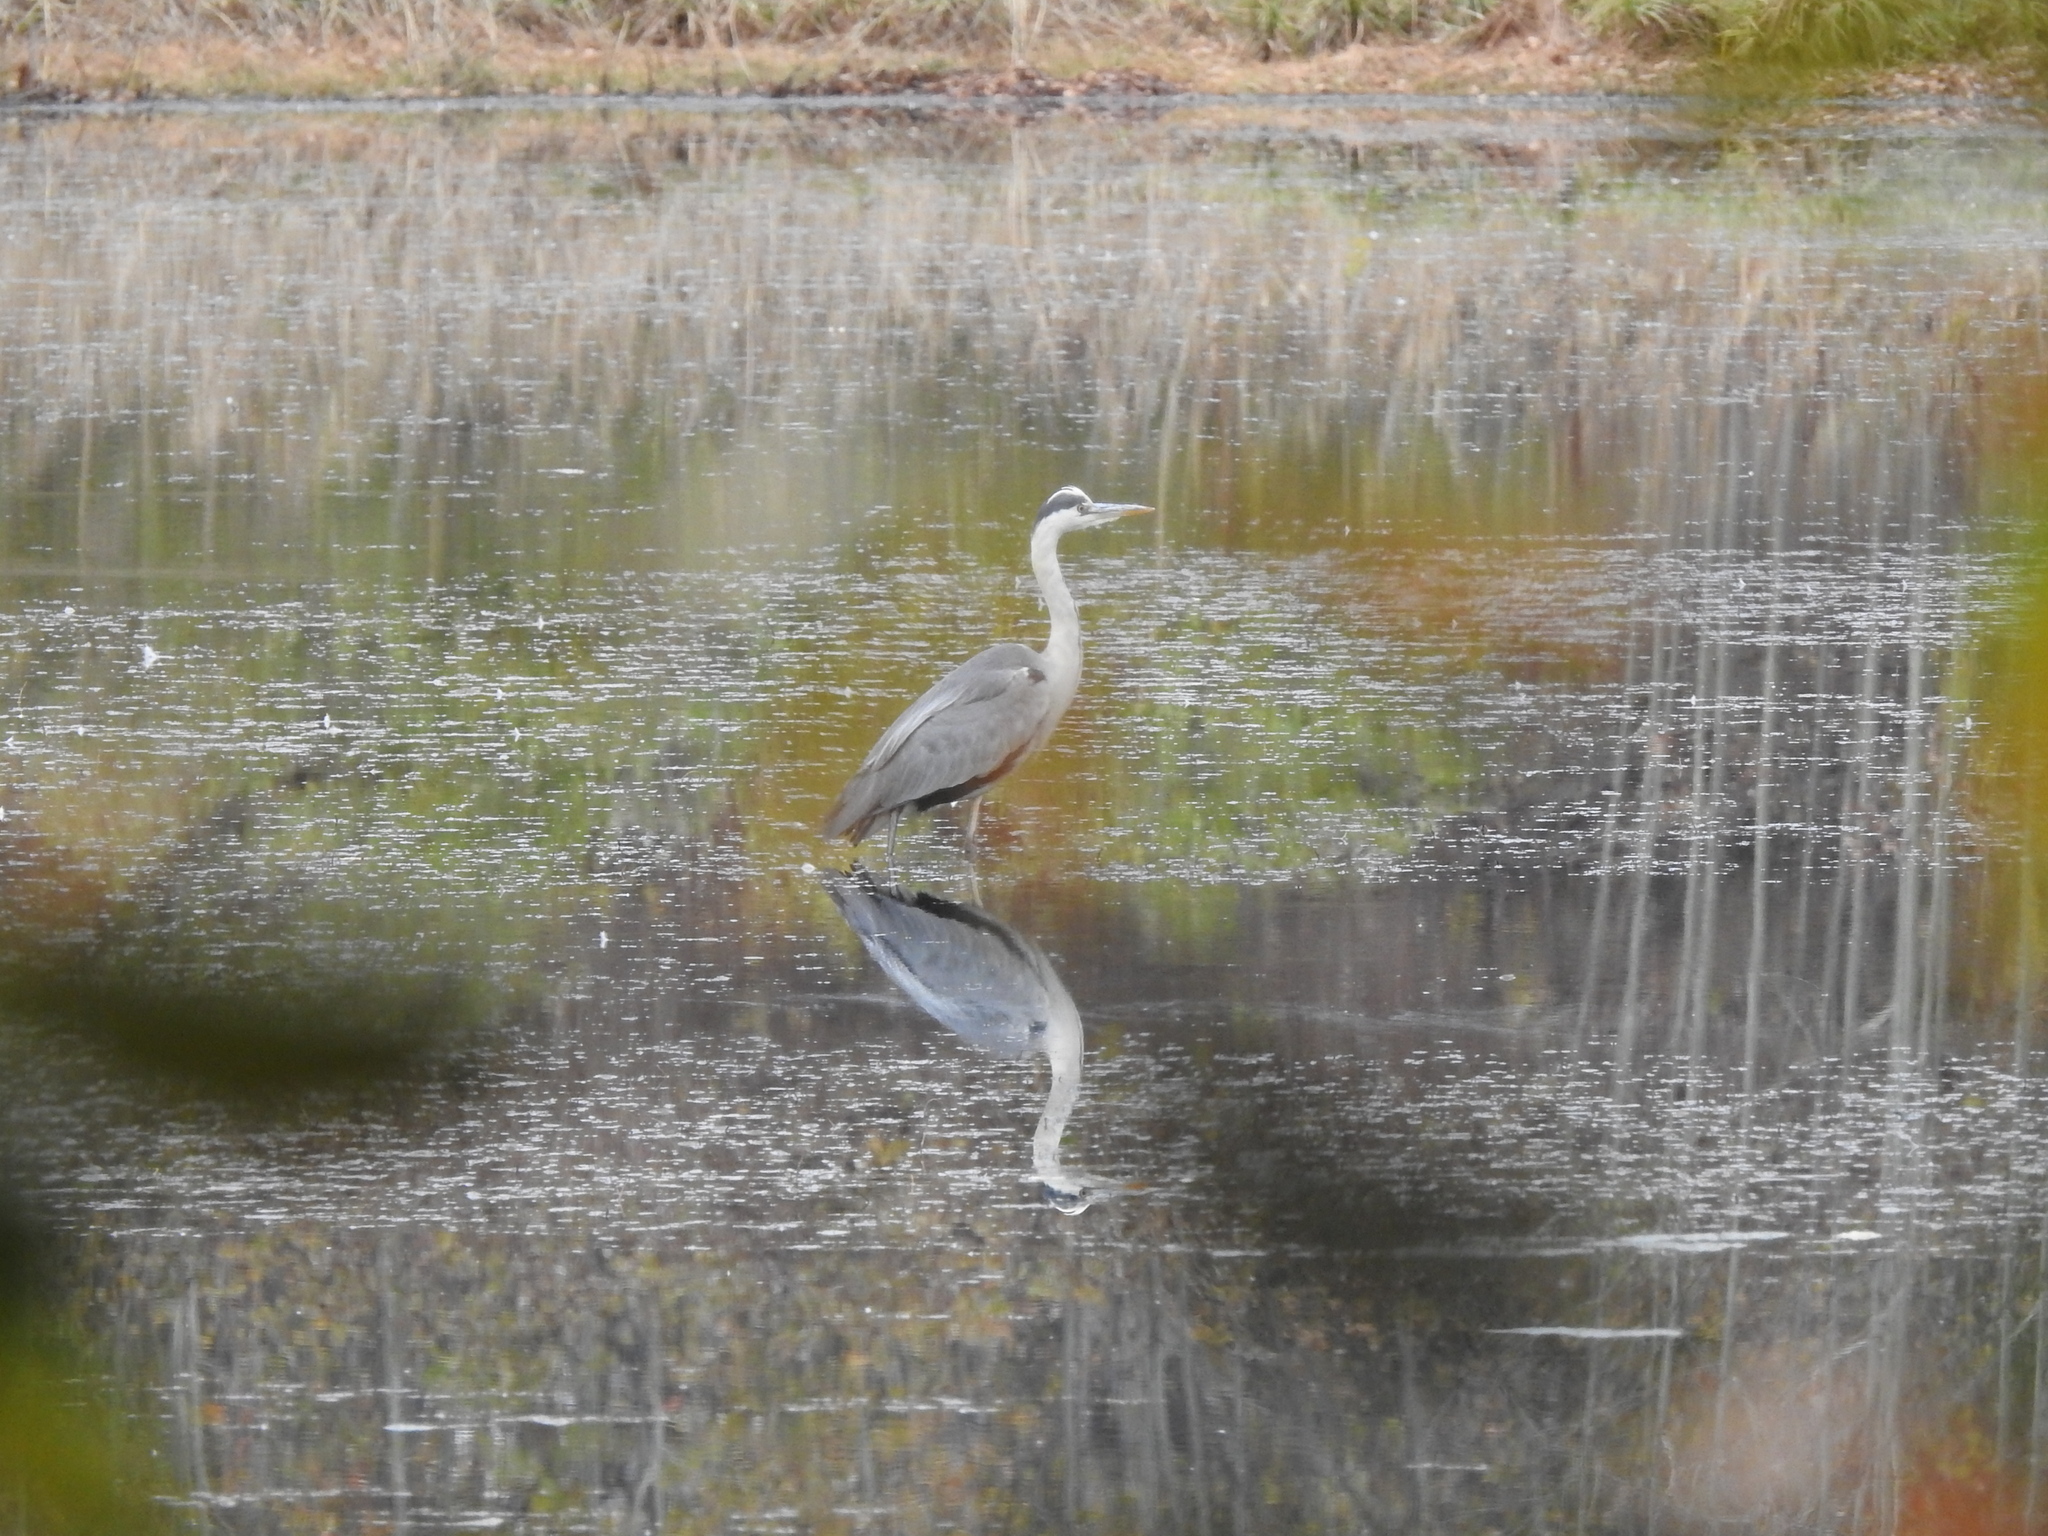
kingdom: Animalia
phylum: Chordata
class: Aves
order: Pelecaniformes
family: Ardeidae
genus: Ardea
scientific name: Ardea cinerea
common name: Grey heron
